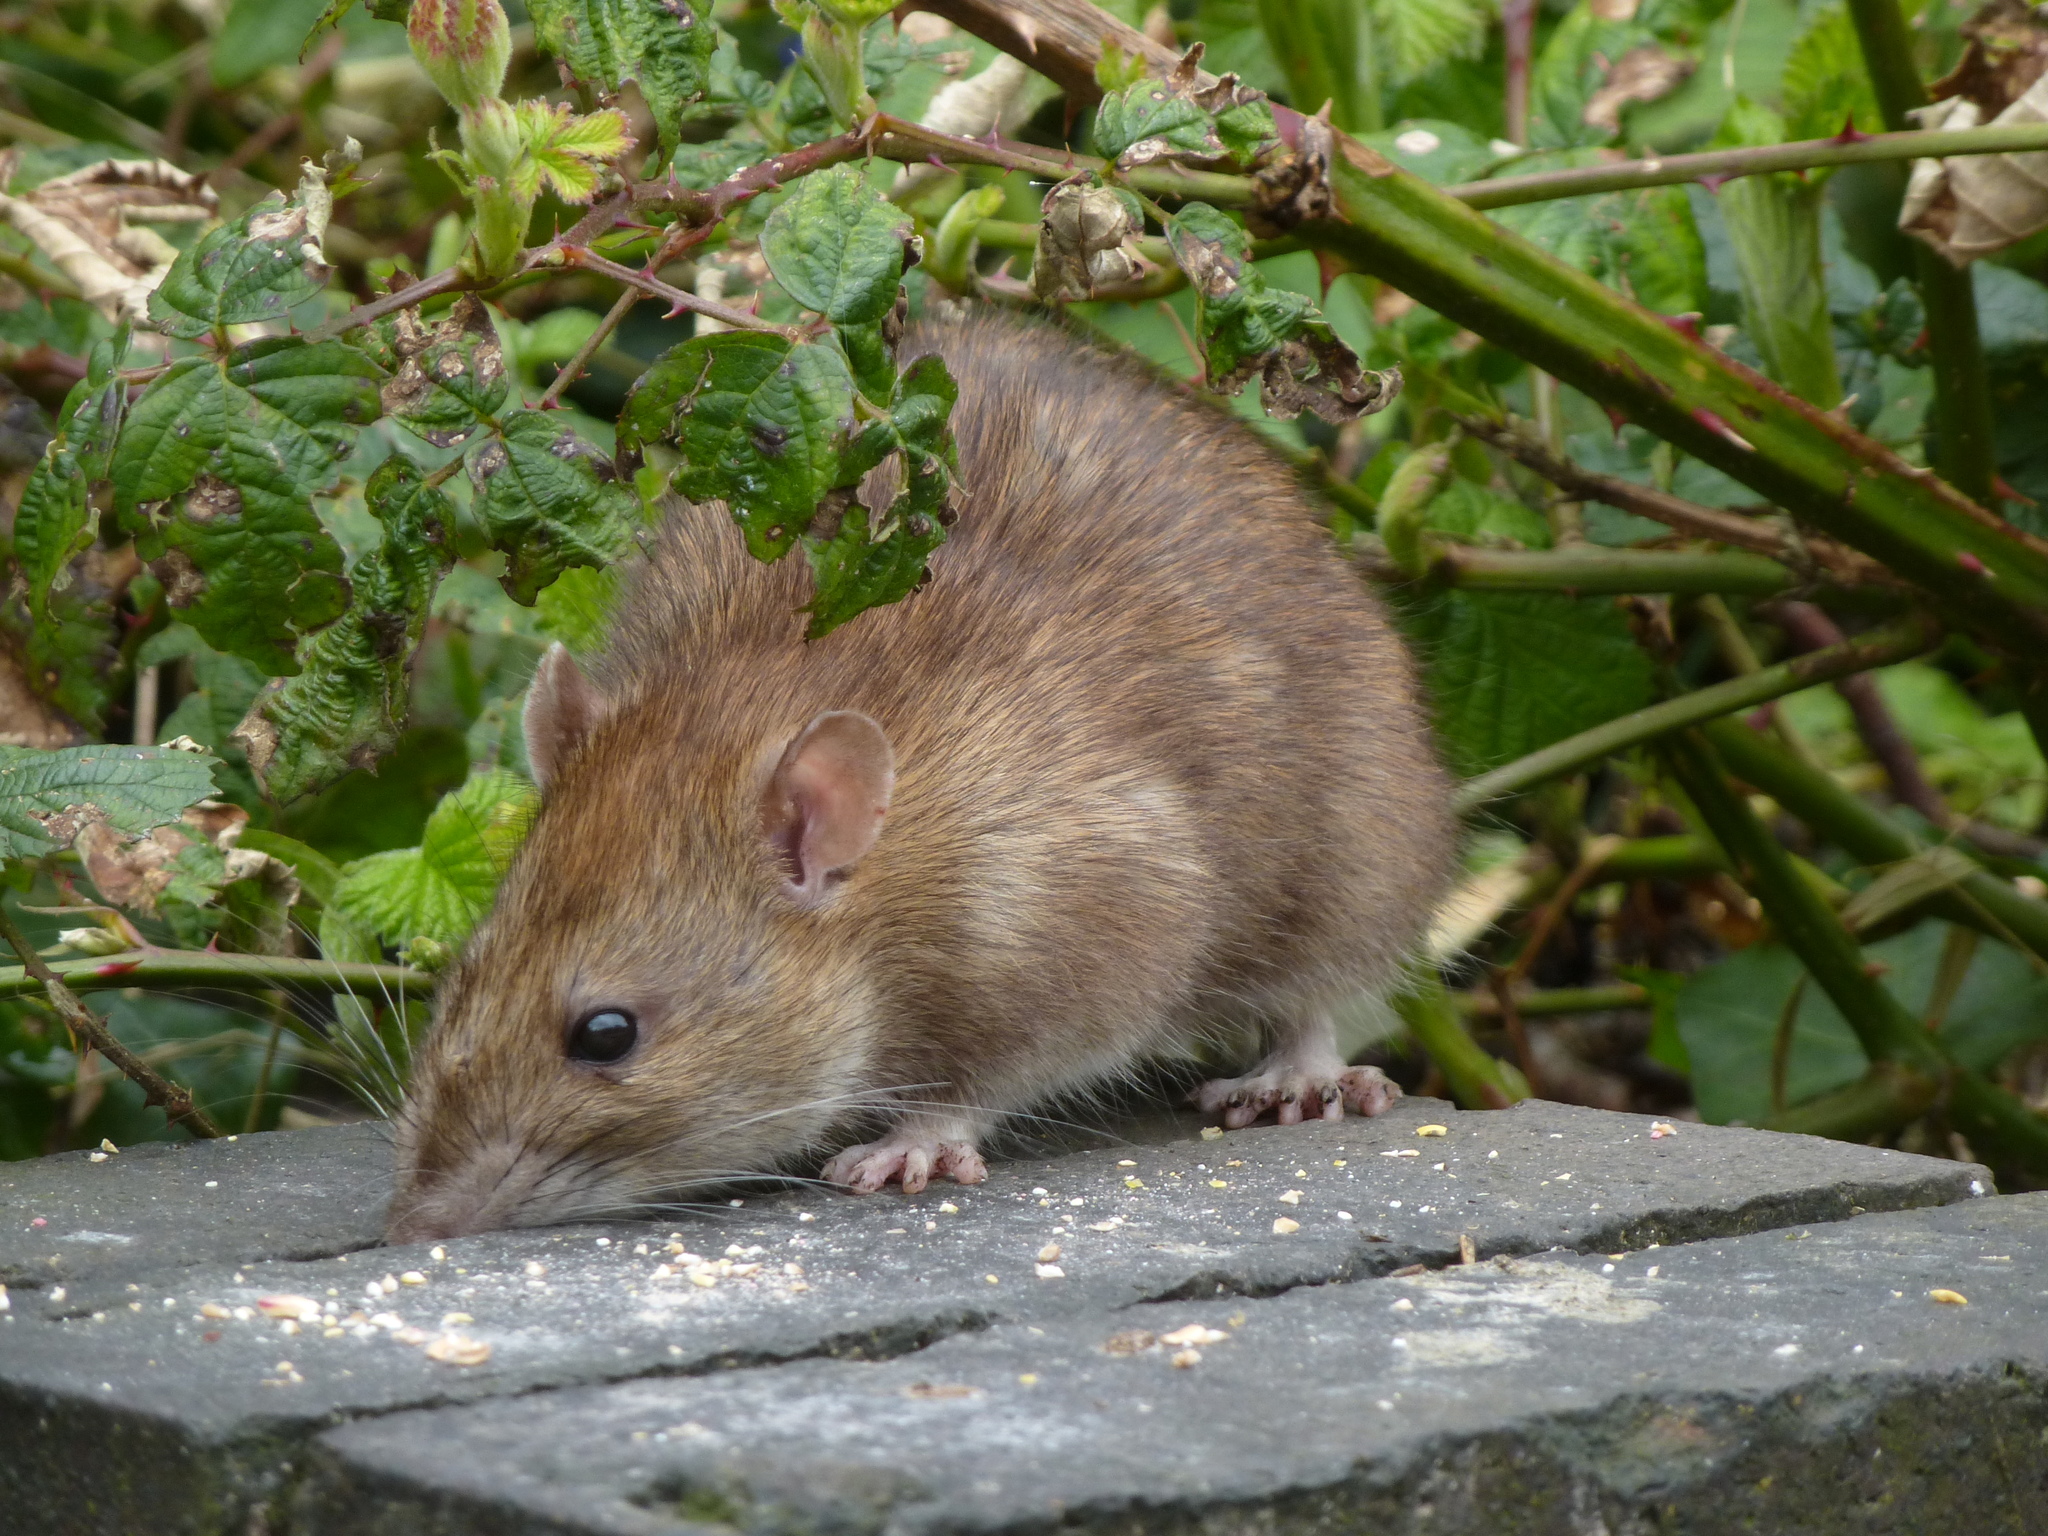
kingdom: Animalia
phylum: Chordata
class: Mammalia
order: Rodentia
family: Muridae
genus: Rattus
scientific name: Rattus norvegicus
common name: Brown rat
